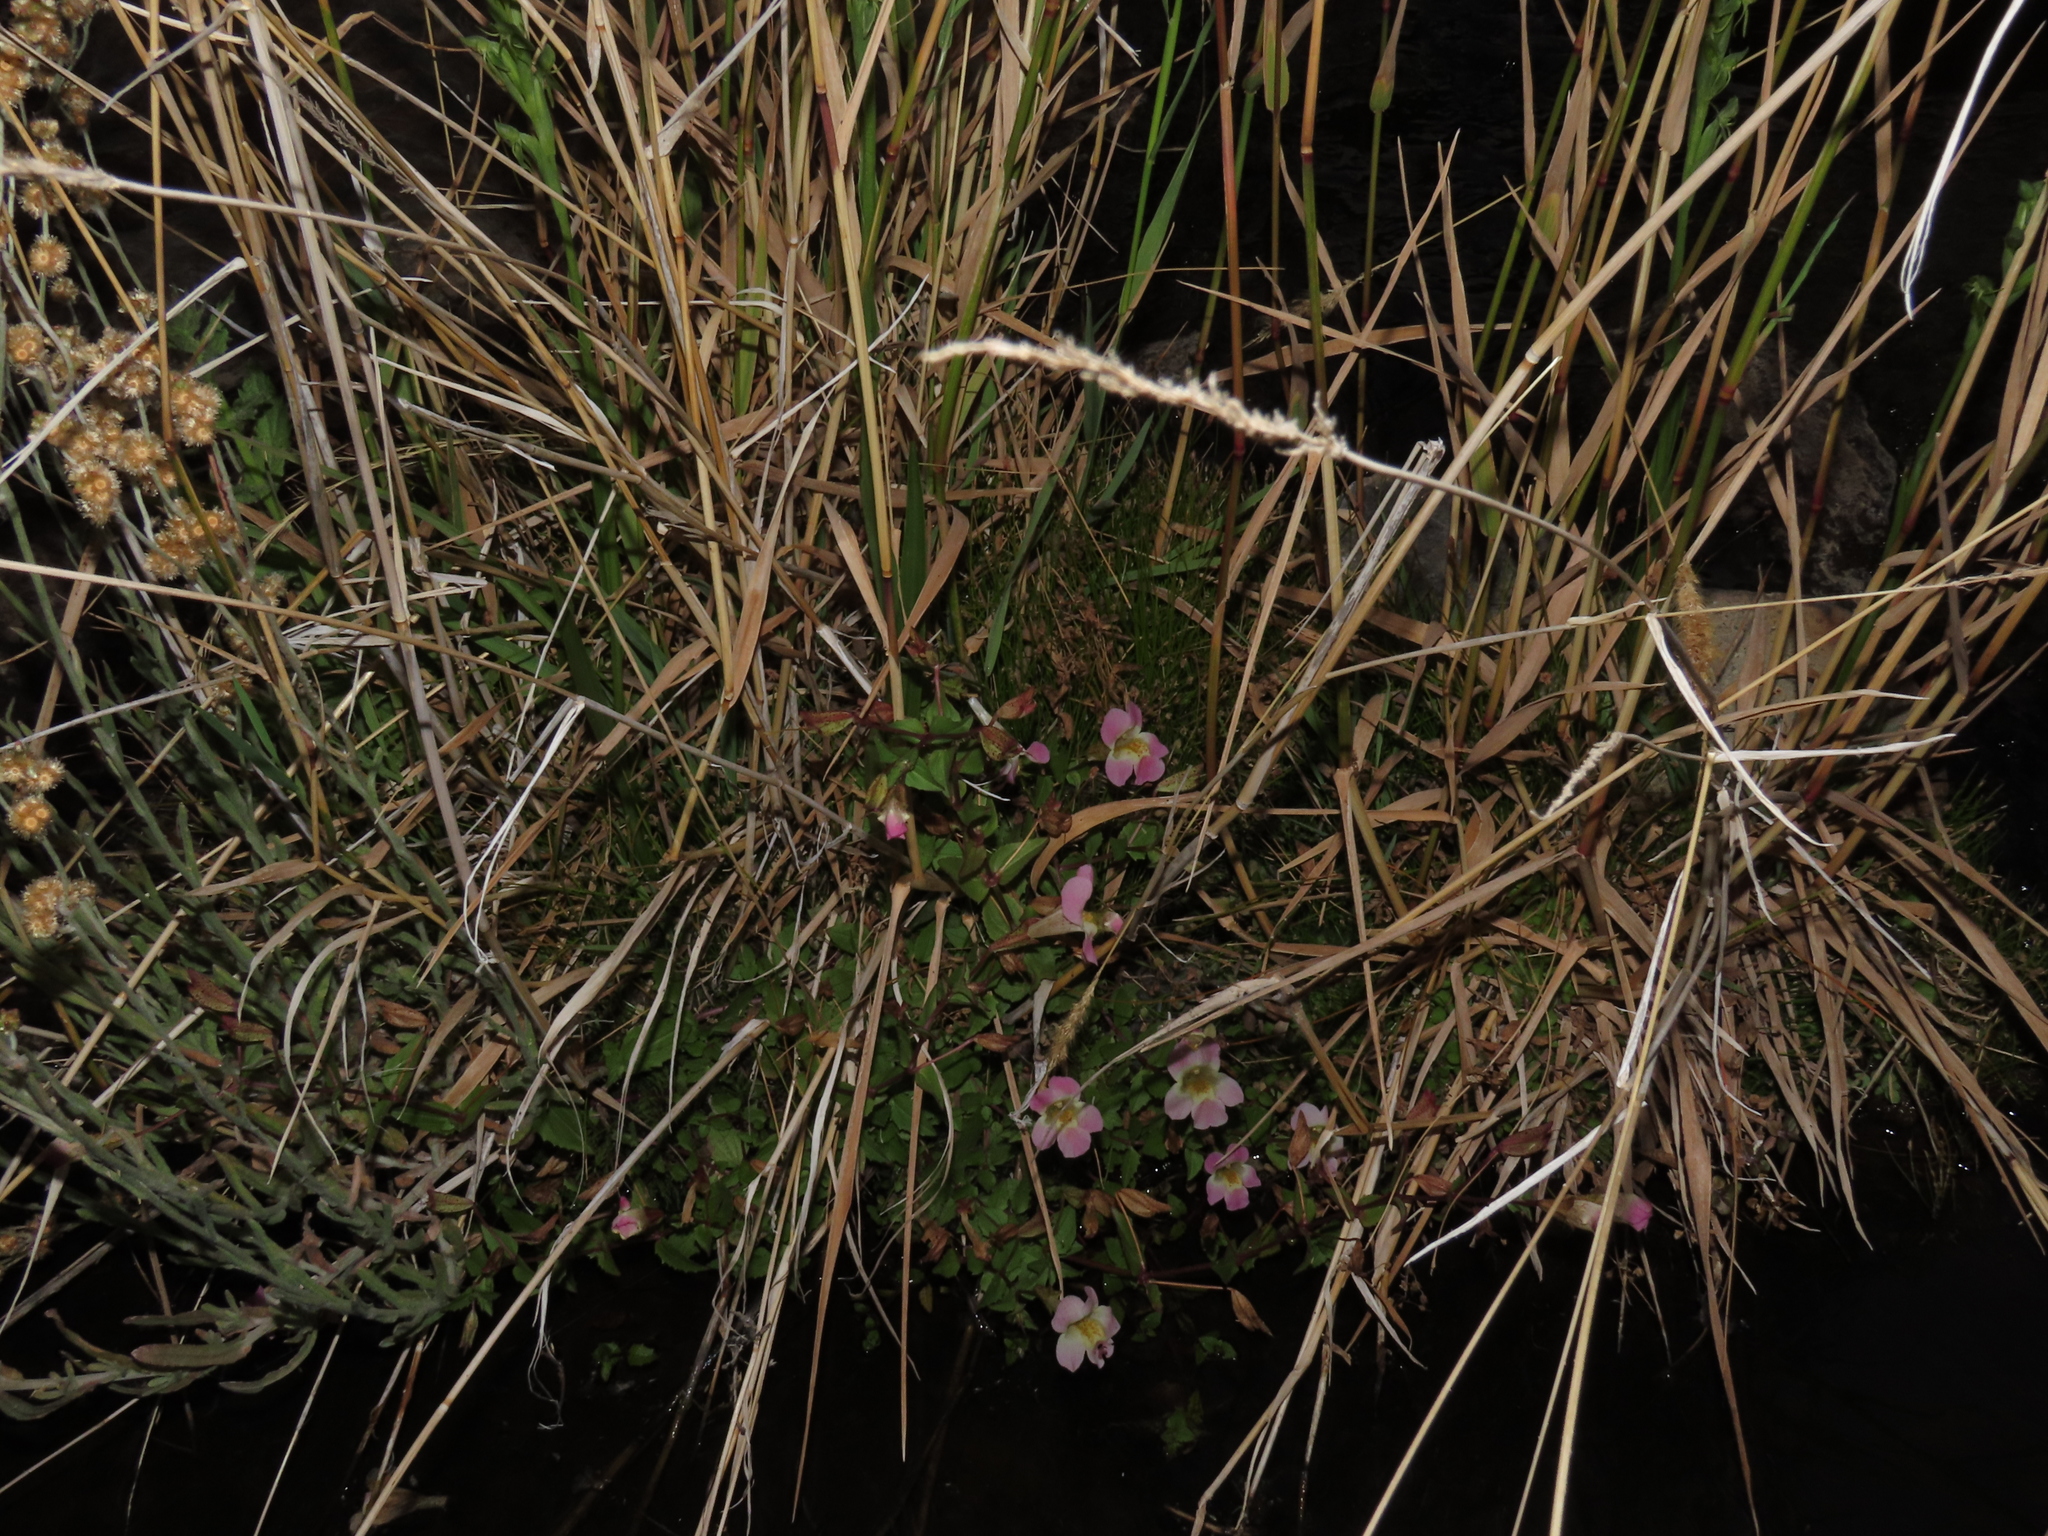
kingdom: Plantae
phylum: Tracheophyta
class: Magnoliopsida
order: Lamiales
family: Phrymaceae
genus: Erythranthe
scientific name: Erythranthe lutea
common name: Yellow monkey-flower
